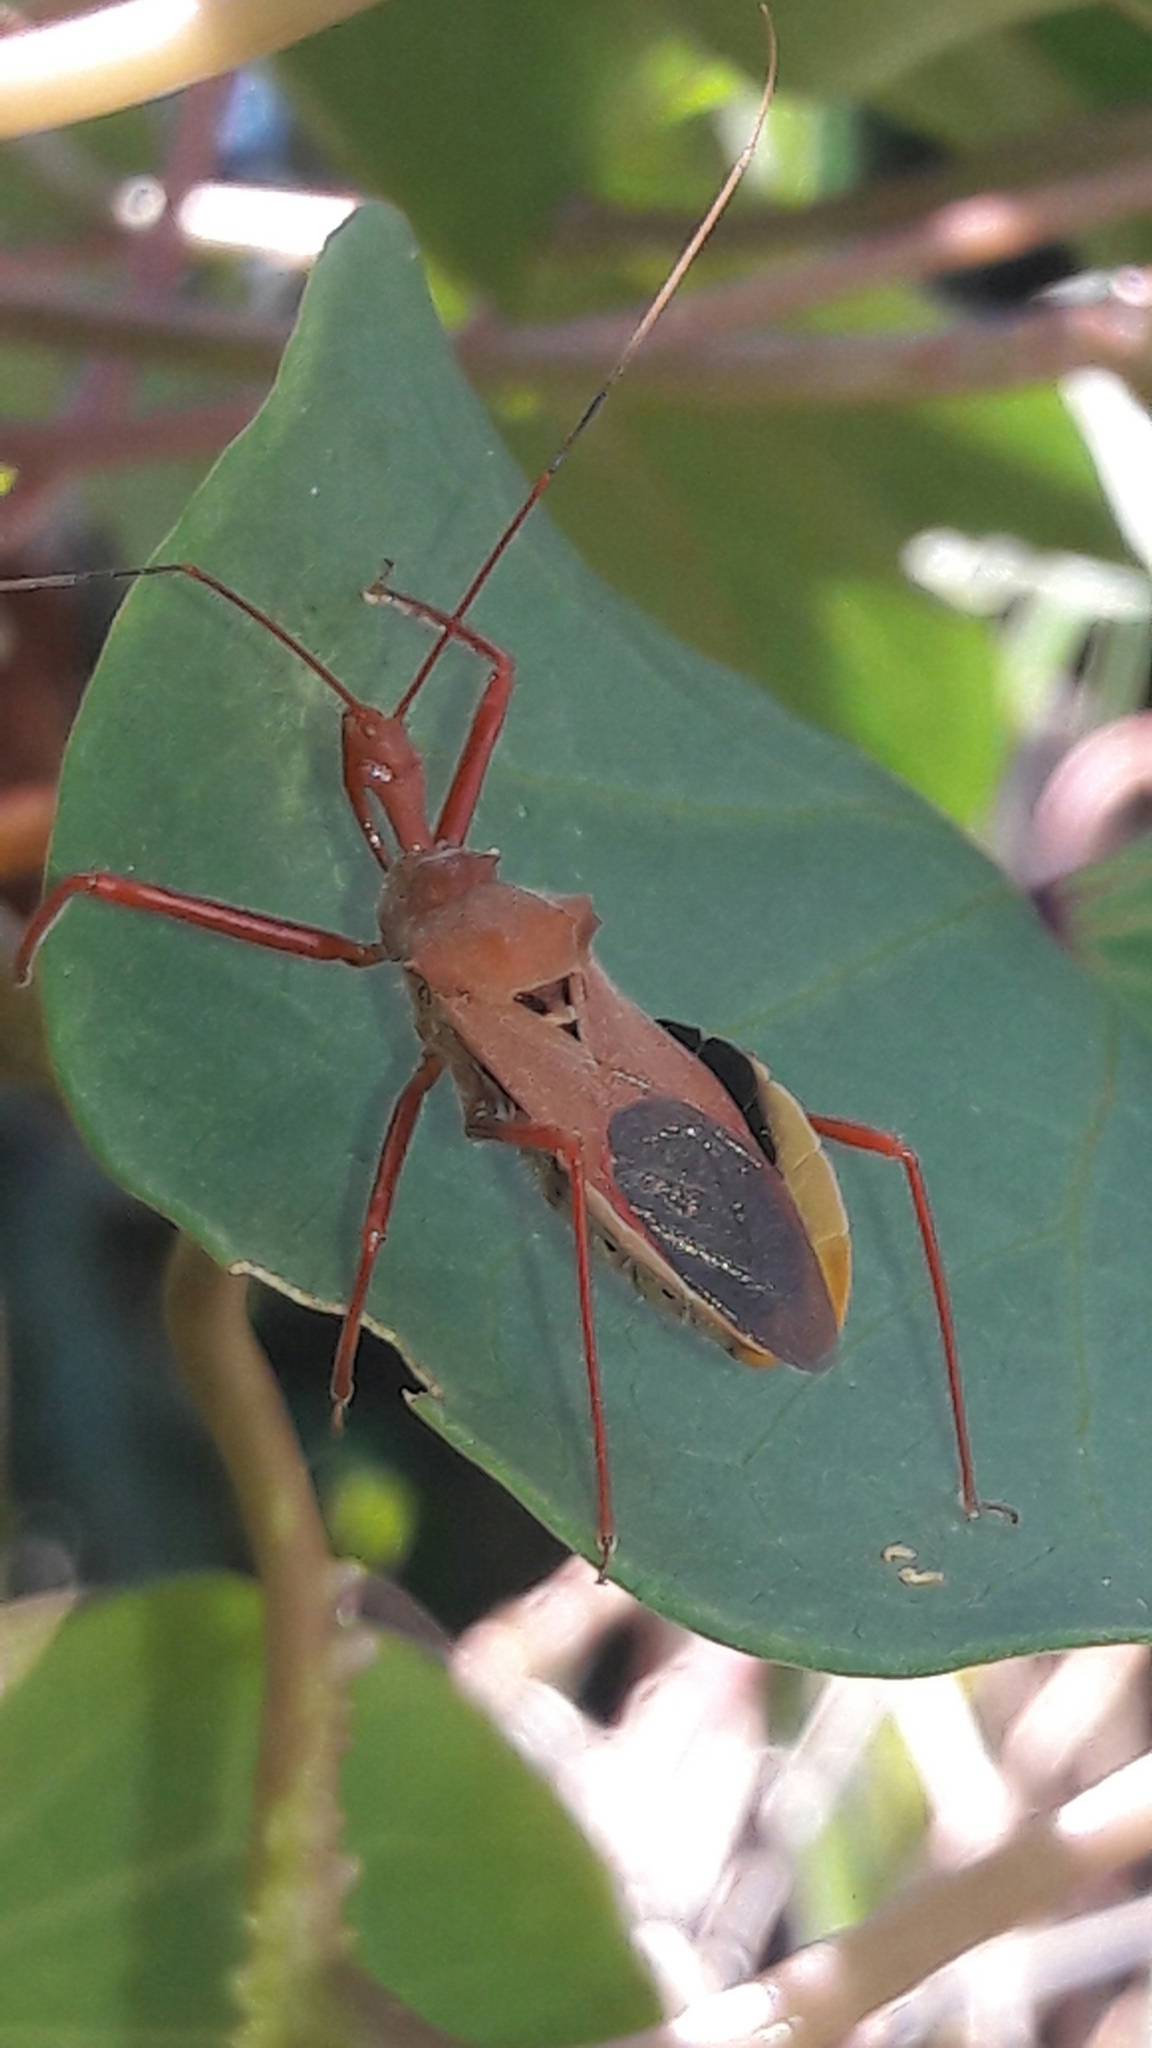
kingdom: Animalia
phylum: Arthropoda
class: Insecta
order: Hemiptera
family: Reduviidae
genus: Montina
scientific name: Montina confusa
